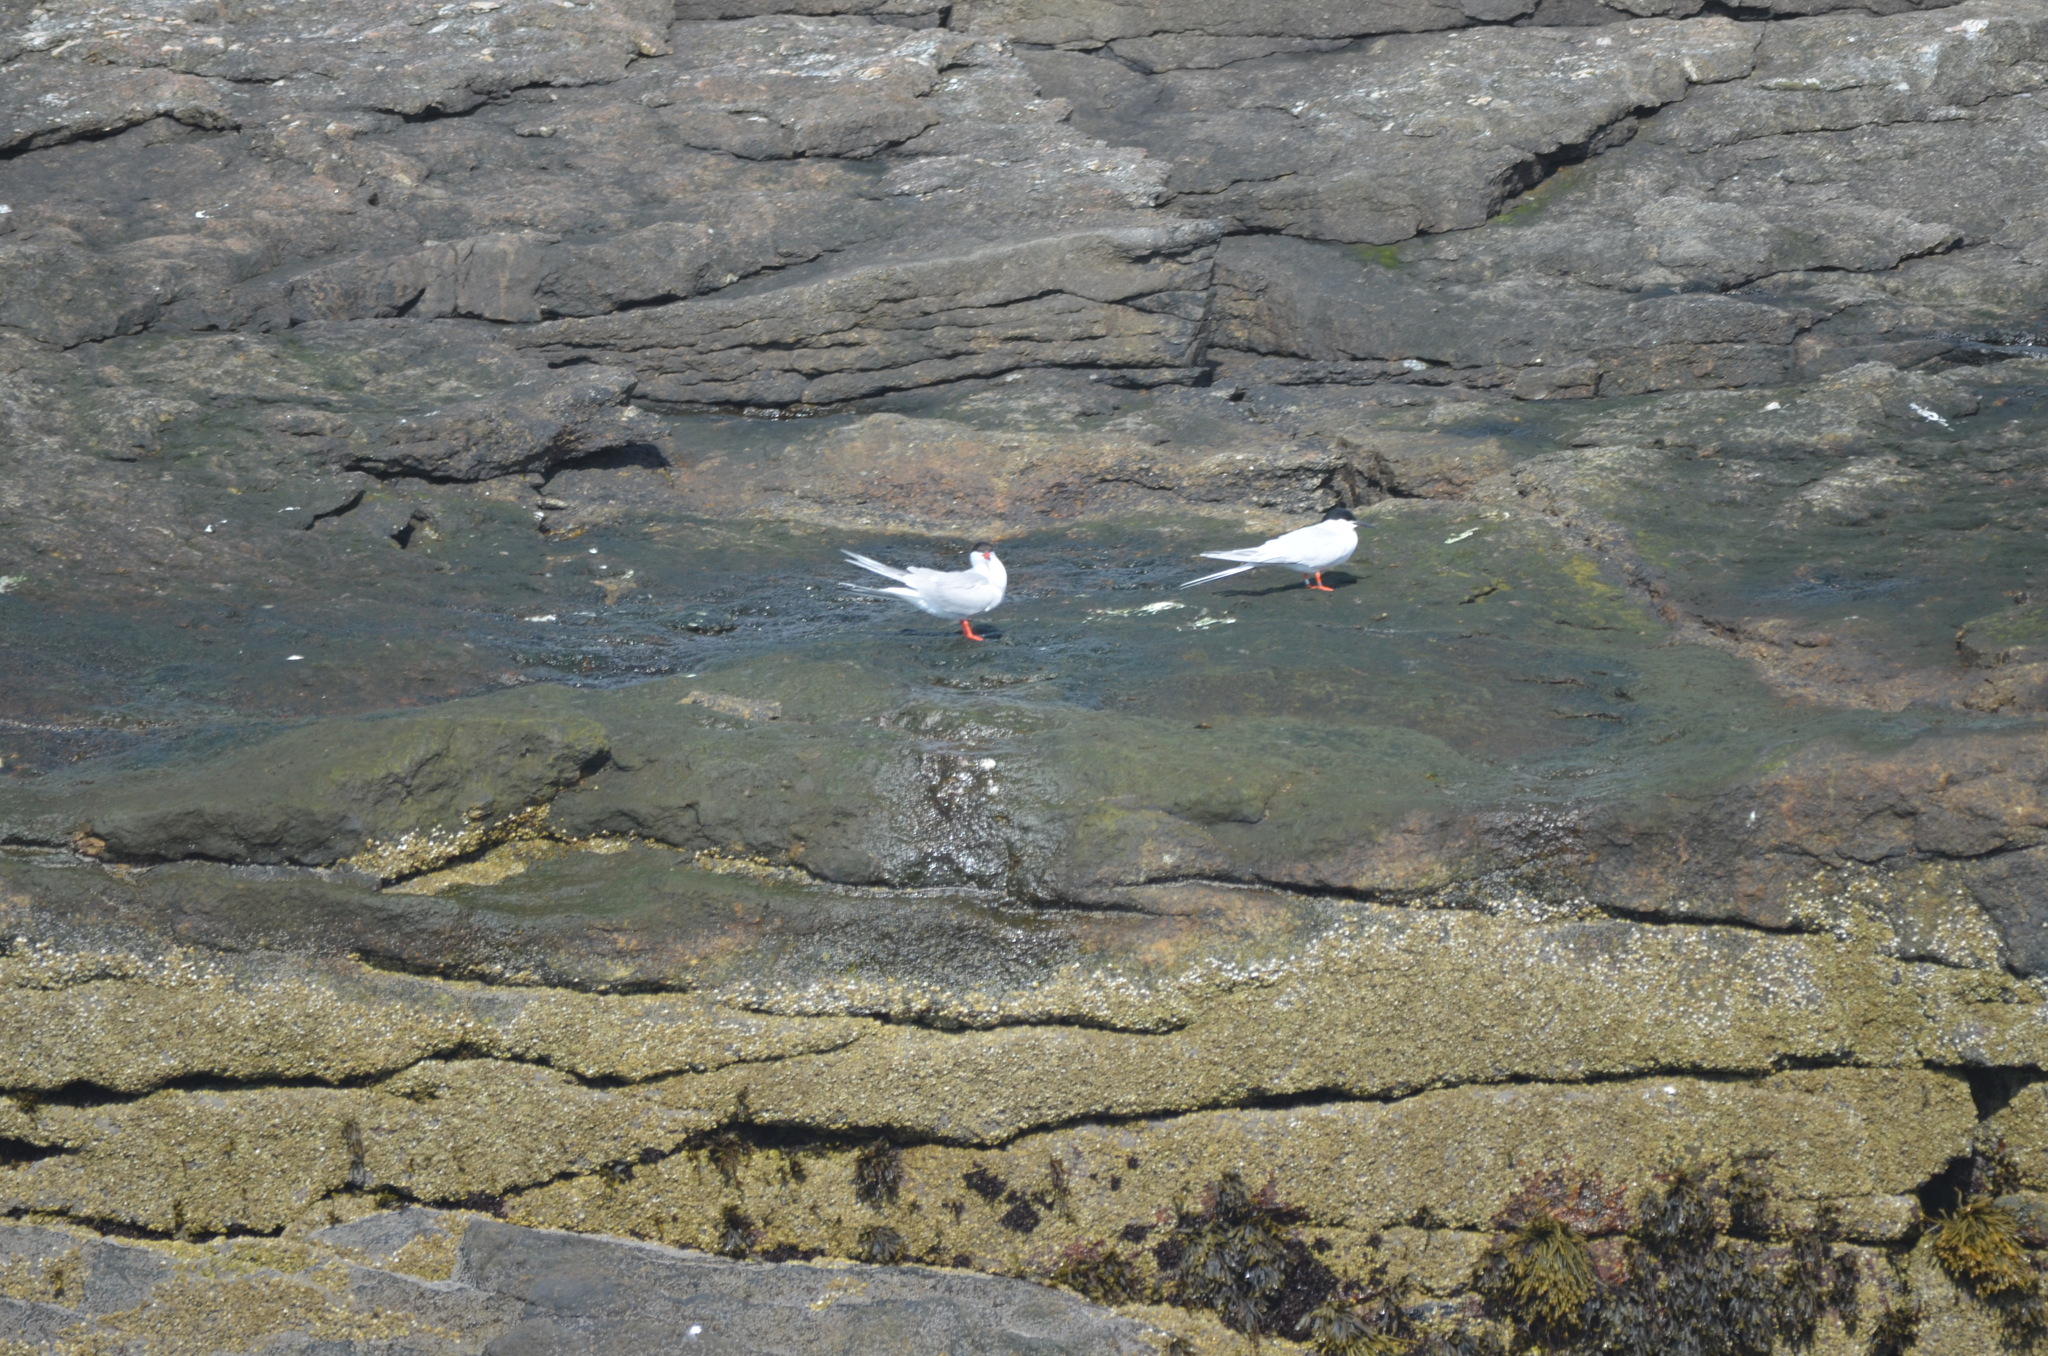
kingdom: Animalia
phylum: Chordata
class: Aves
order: Charadriiformes
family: Laridae
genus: Sterna
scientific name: Sterna dougallii
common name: Roseate tern
